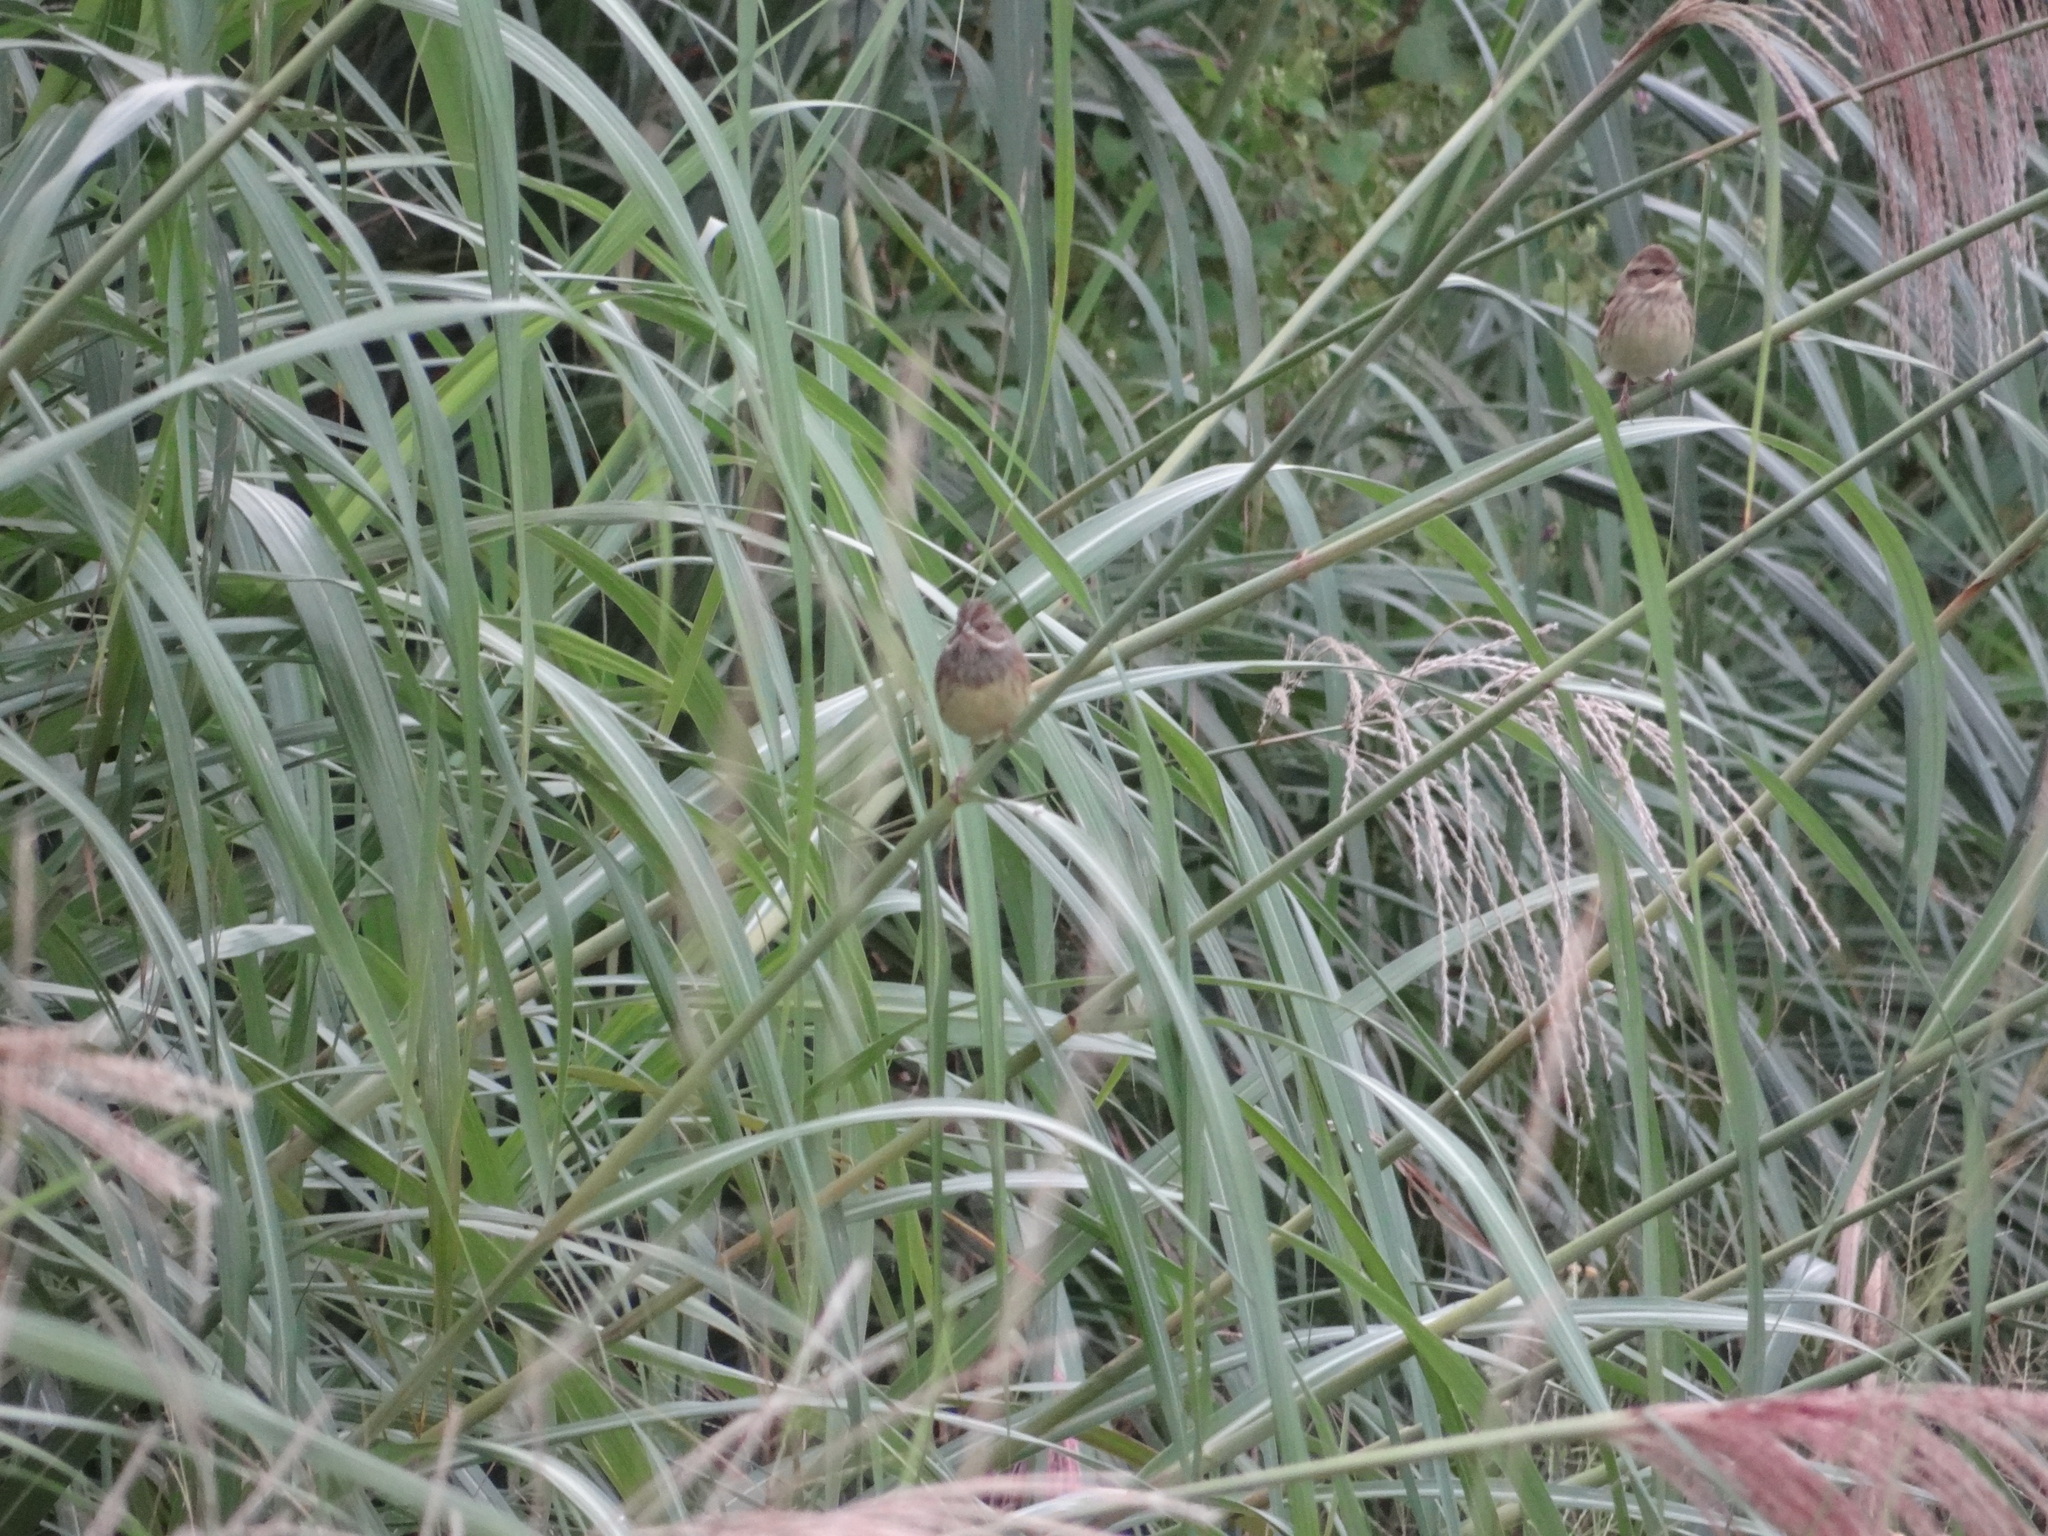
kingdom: Animalia
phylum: Chordata
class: Aves
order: Passeriformes
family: Emberizidae
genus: Emberiza
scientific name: Emberiza spodocephala
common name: Black-faced bunting
